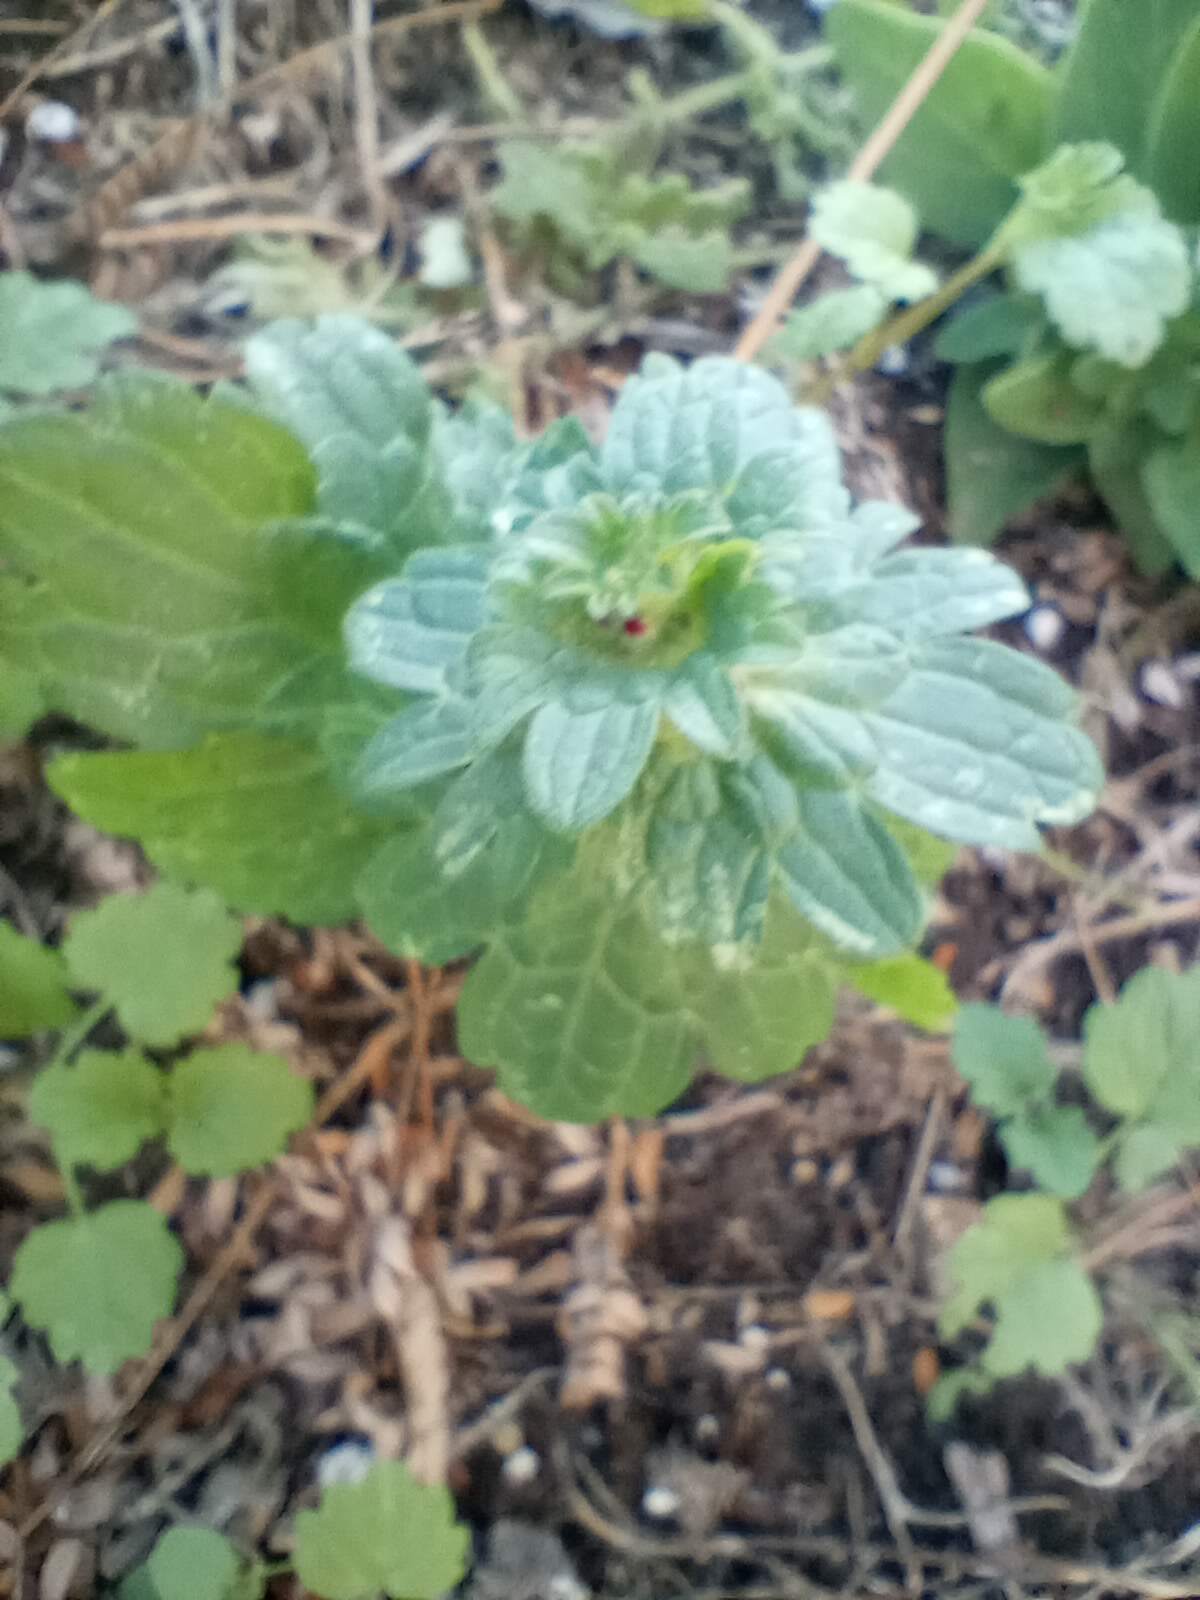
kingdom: Plantae
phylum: Tracheophyta
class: Magnoliopsida
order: Lamiales
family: Lamiaceae
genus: Lamium
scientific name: Lamium amplexicaule
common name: Henbit dead-nettle
